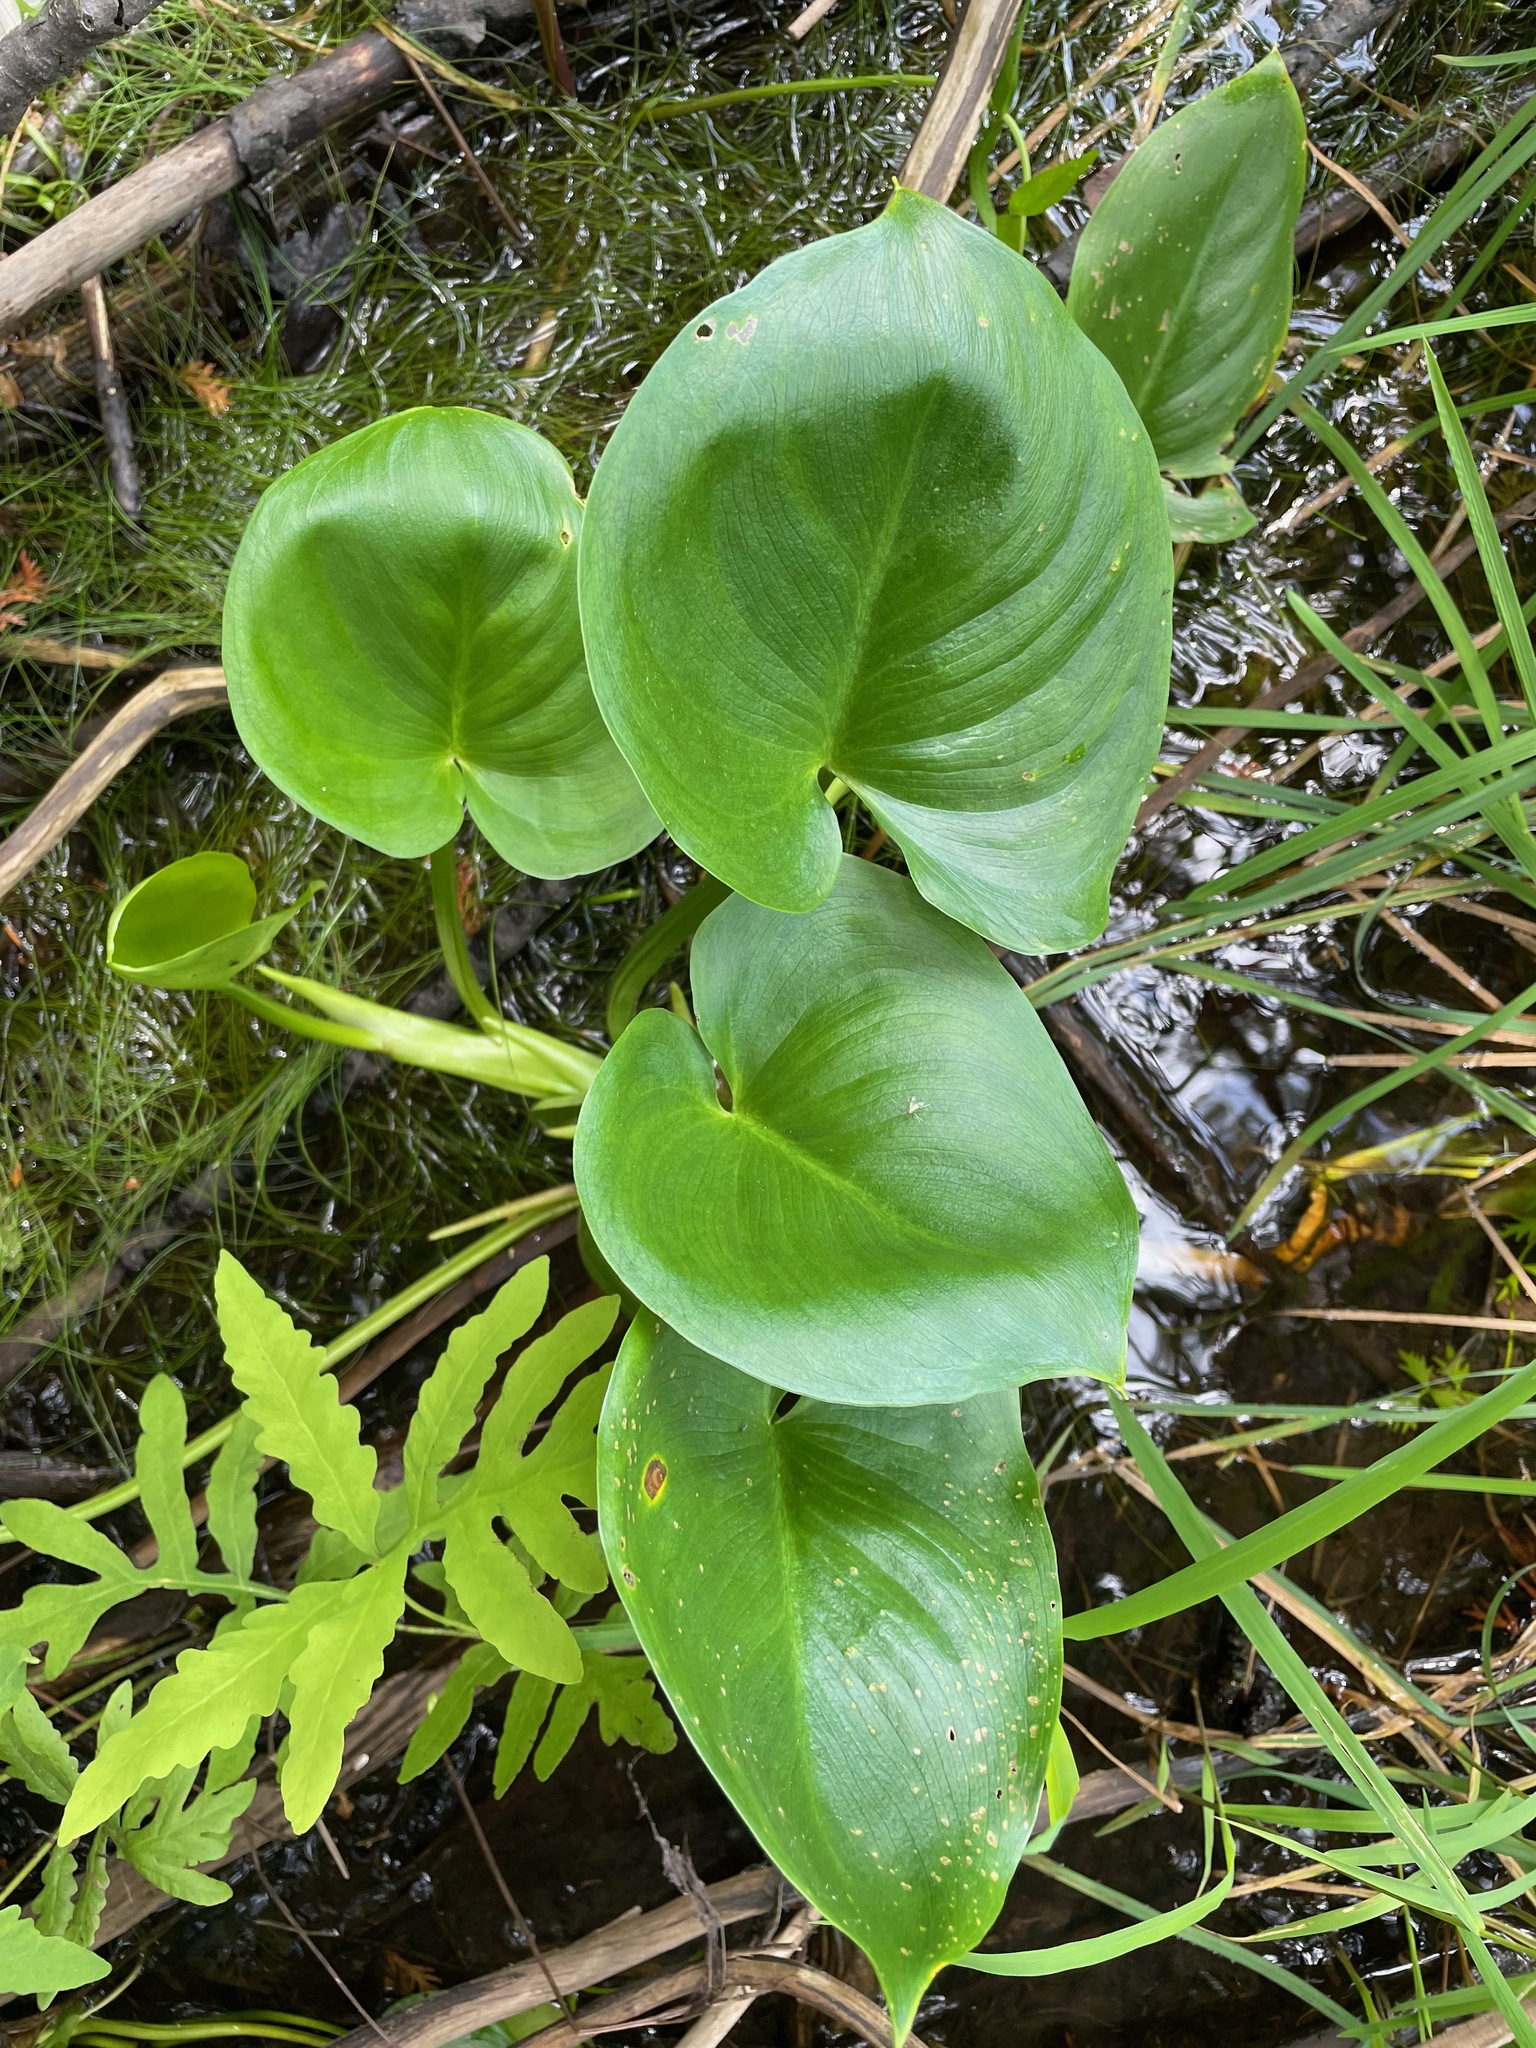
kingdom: Plantae
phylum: Tracheophyta
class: Liliopsida
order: Alismatales
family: Araceae
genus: Calla
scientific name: Calla palustris
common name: Bog arum
